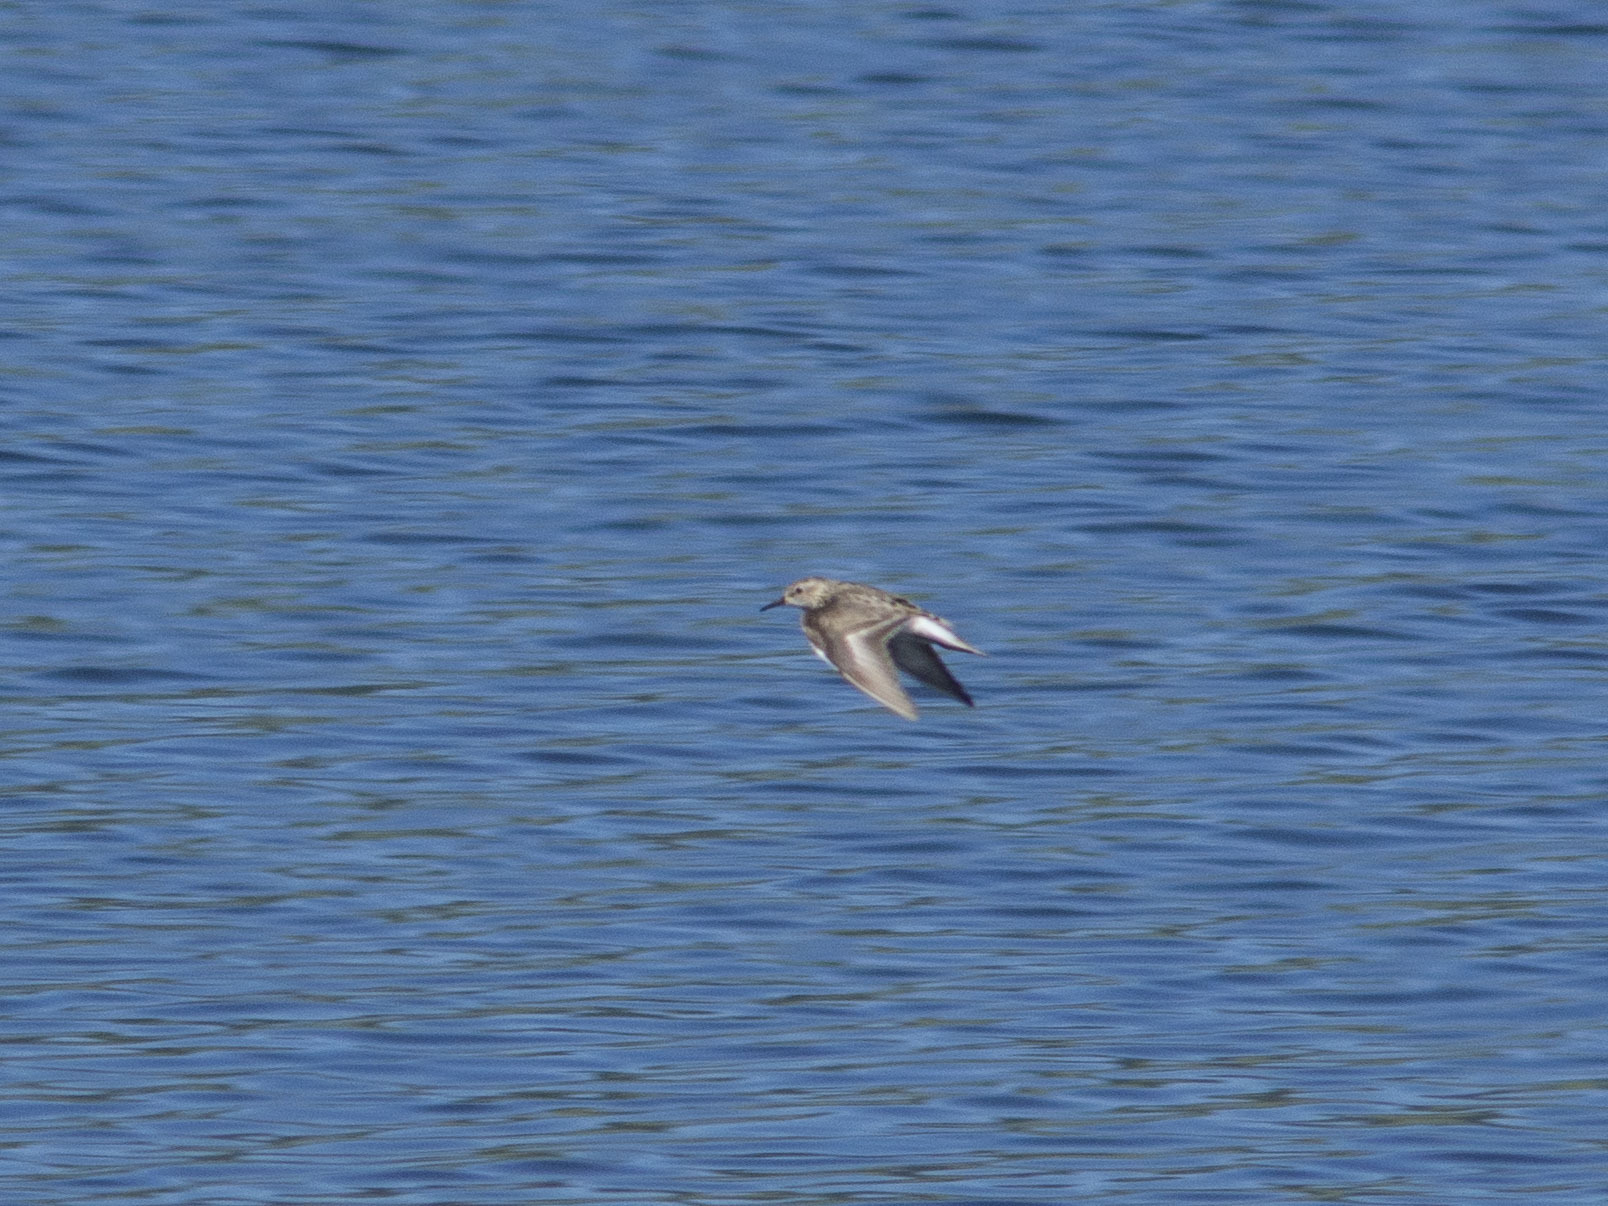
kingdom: Animalia
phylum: Chordata
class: Aves
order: Charadriiformes
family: Scolopacidae
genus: Calidris
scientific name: Calidris temminckii
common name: Temminck's stint
